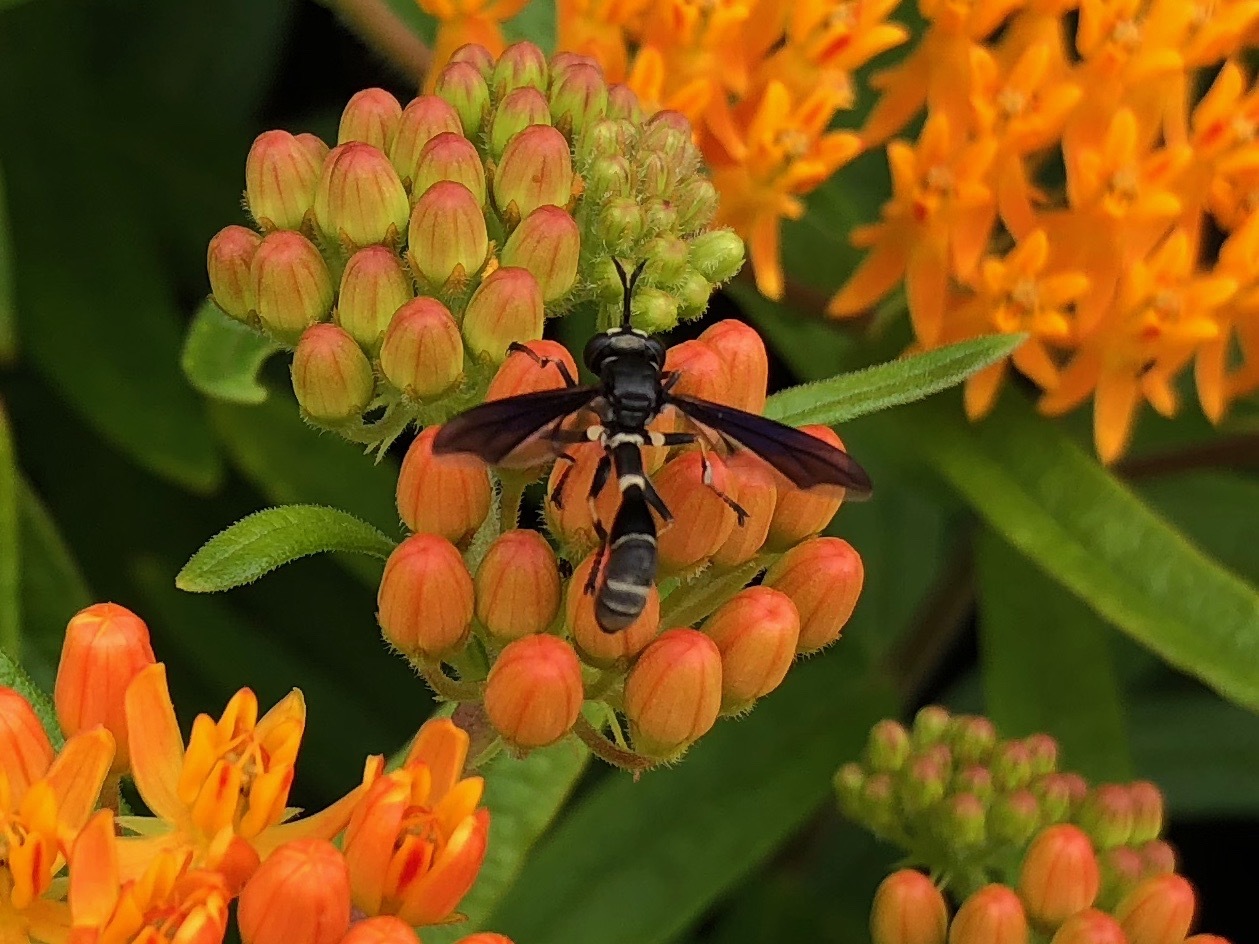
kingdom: Animalia
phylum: Arthropoda
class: Insecta
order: Diptera
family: Conopidae
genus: Physocephala
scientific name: Physocephala tibialis
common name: Common eastern physocephala
